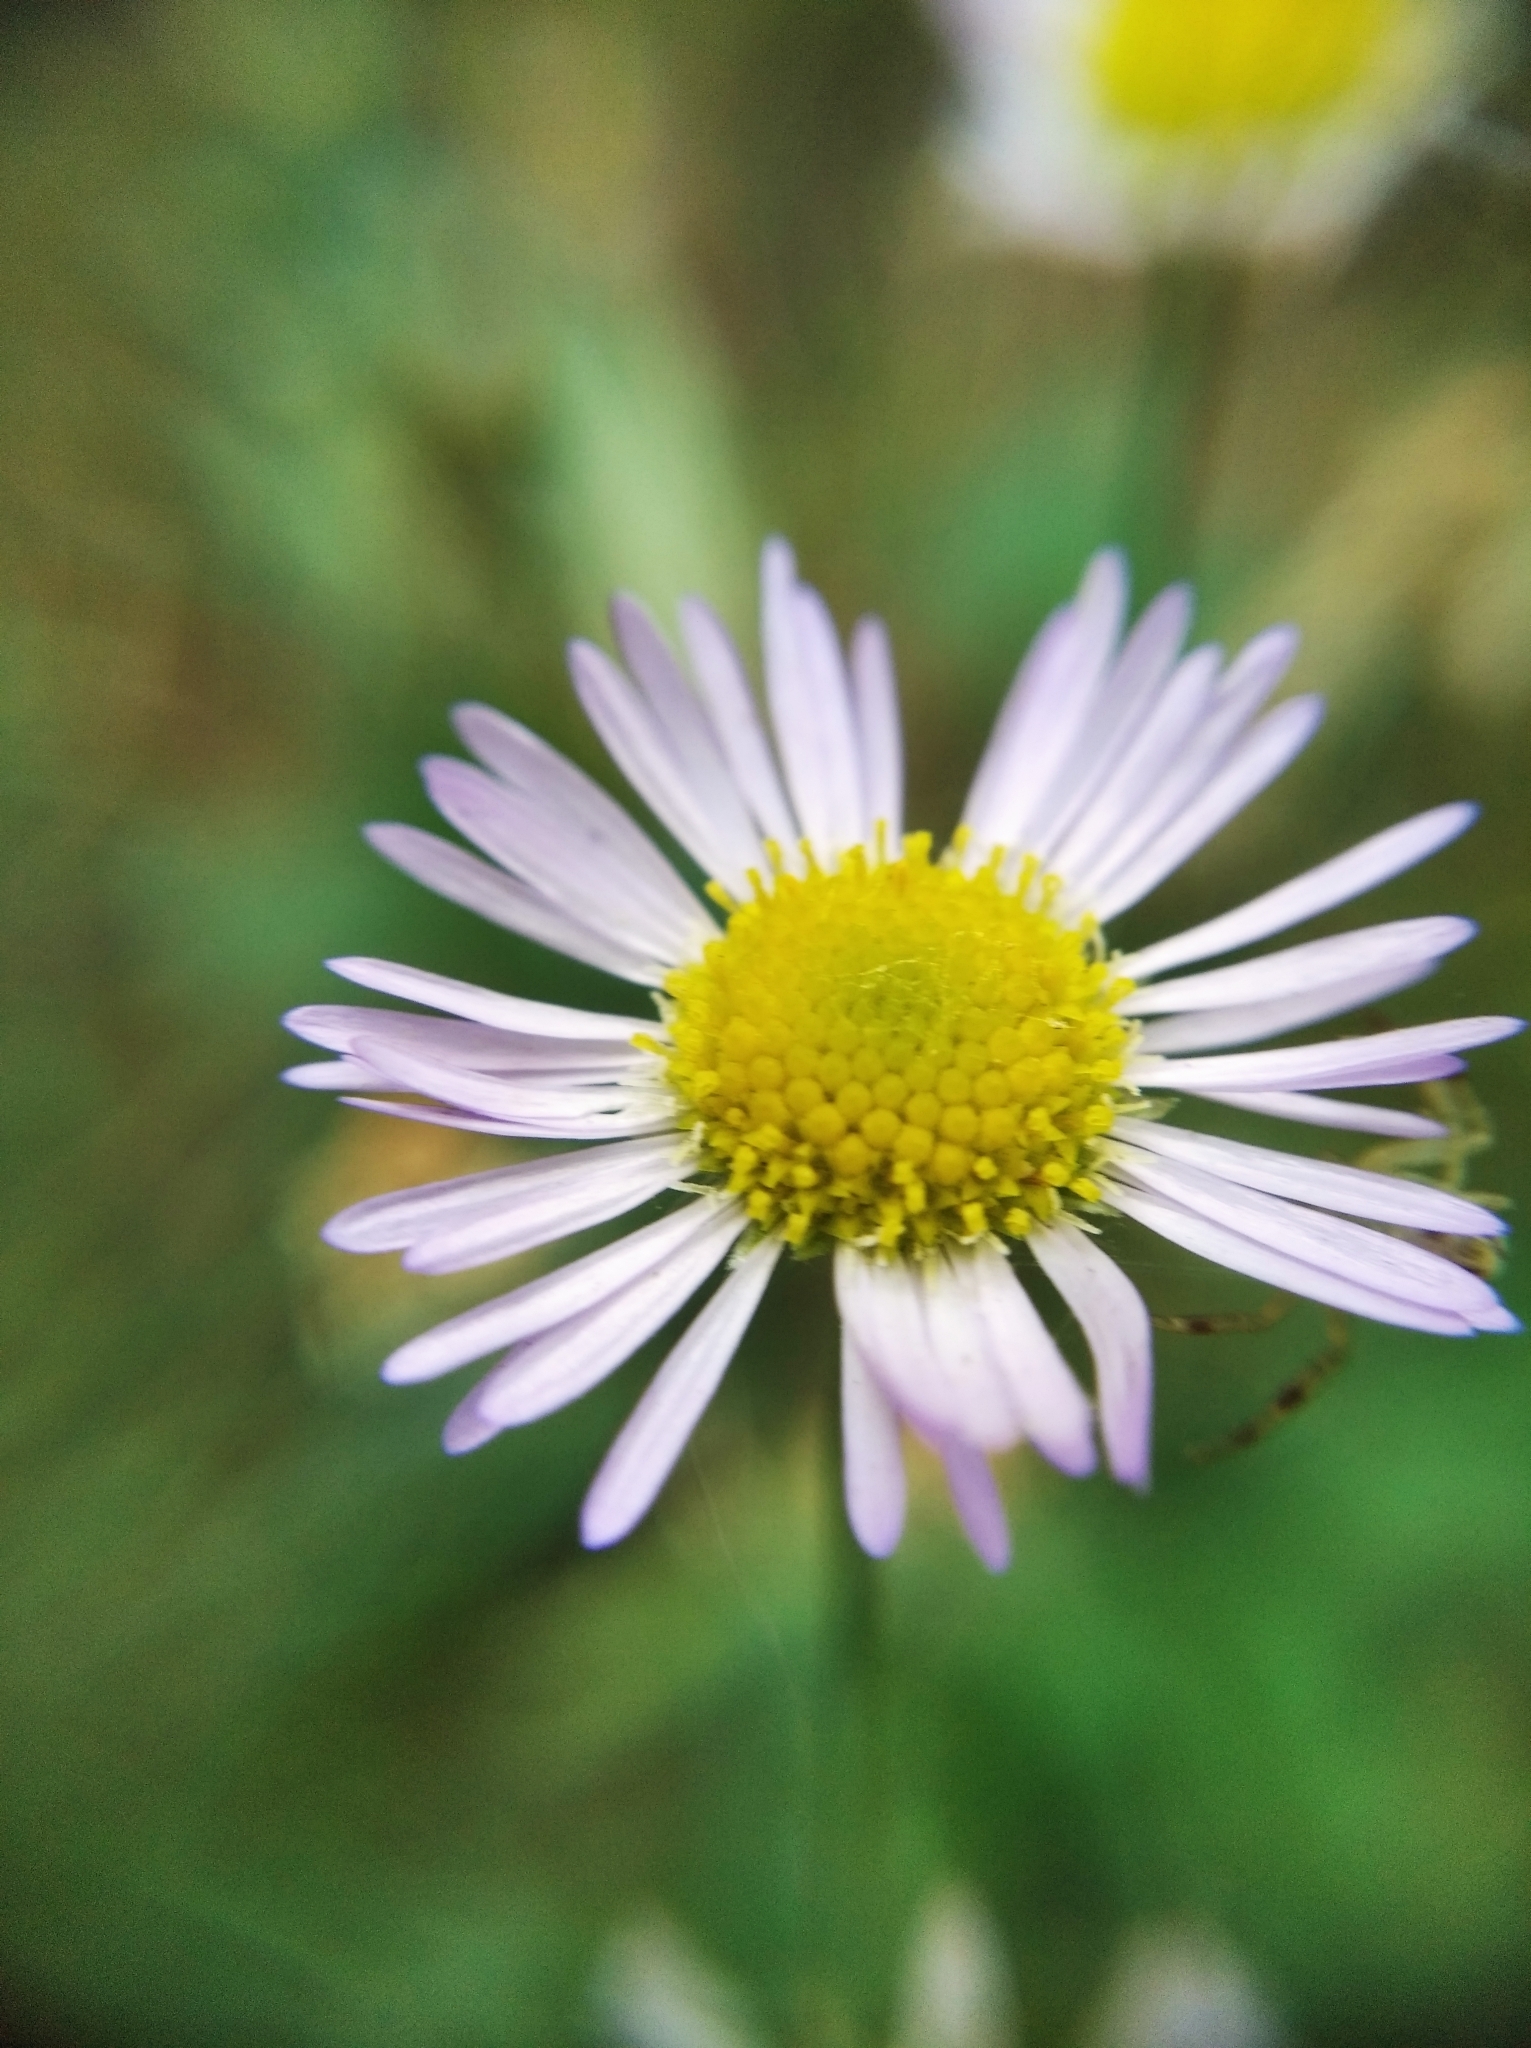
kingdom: Plantae
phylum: Tracheophyta
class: Magnoliopsida
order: Asterales
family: Asteraceae
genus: Erigeron
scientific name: Erigeron annuus
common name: Tall fleabane
